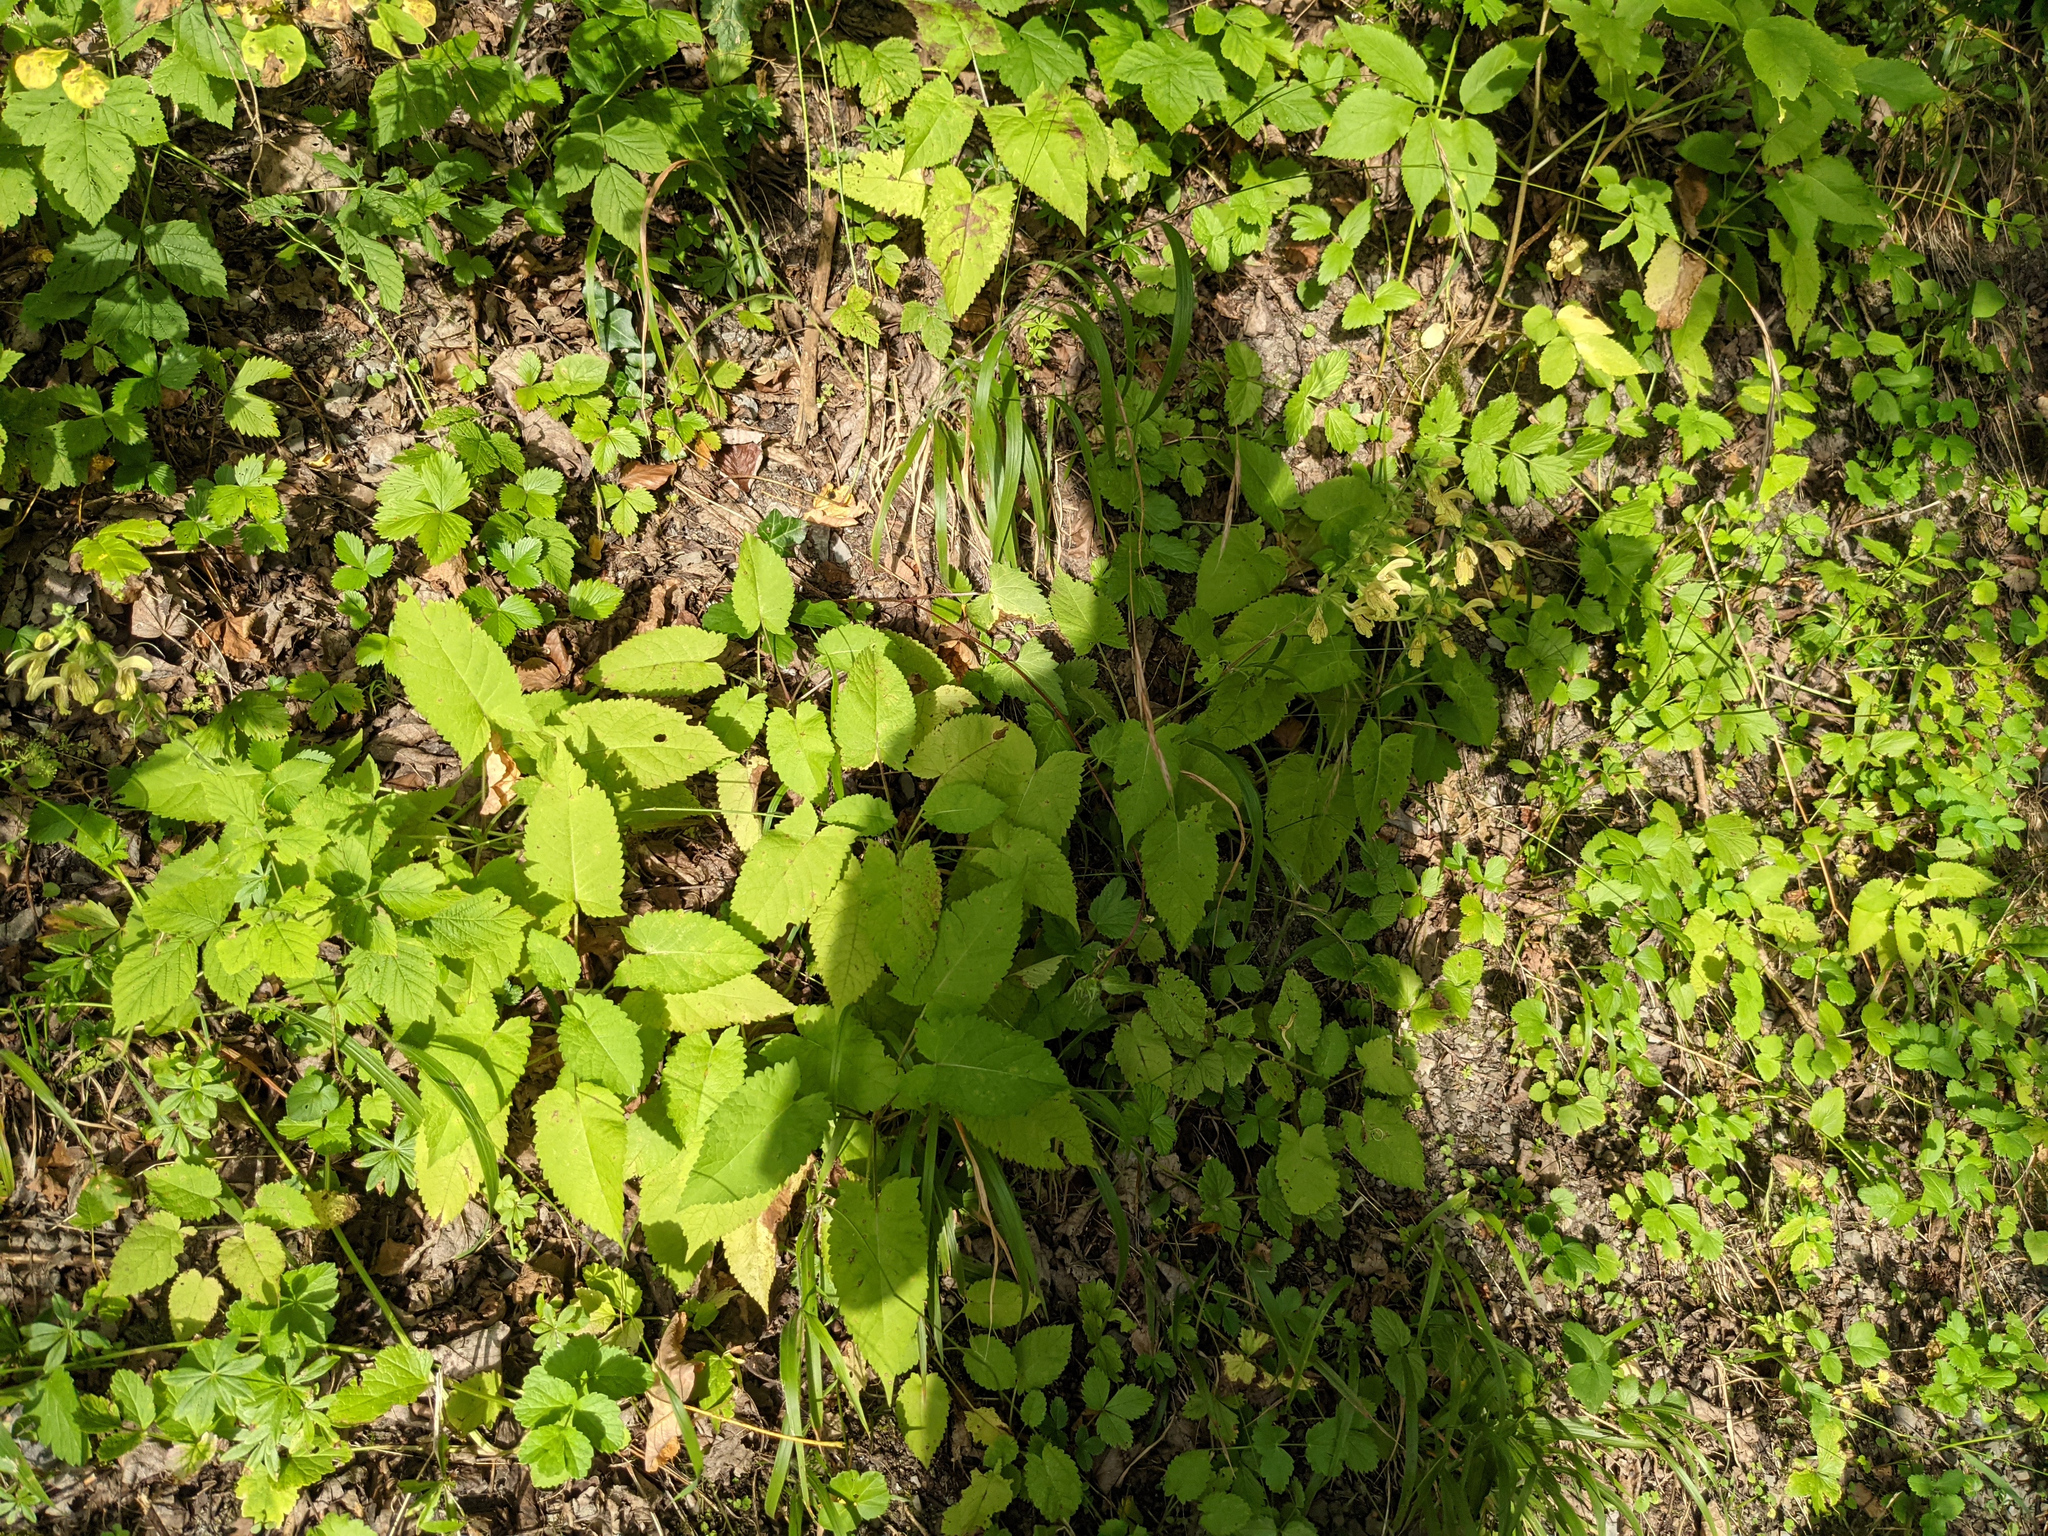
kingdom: Plantae
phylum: Tracheophyta
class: Magnoliopsida
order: Lamiales
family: Lamiaceae
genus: Salvia
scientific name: Salvia glutinosa
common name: Sticky clary
